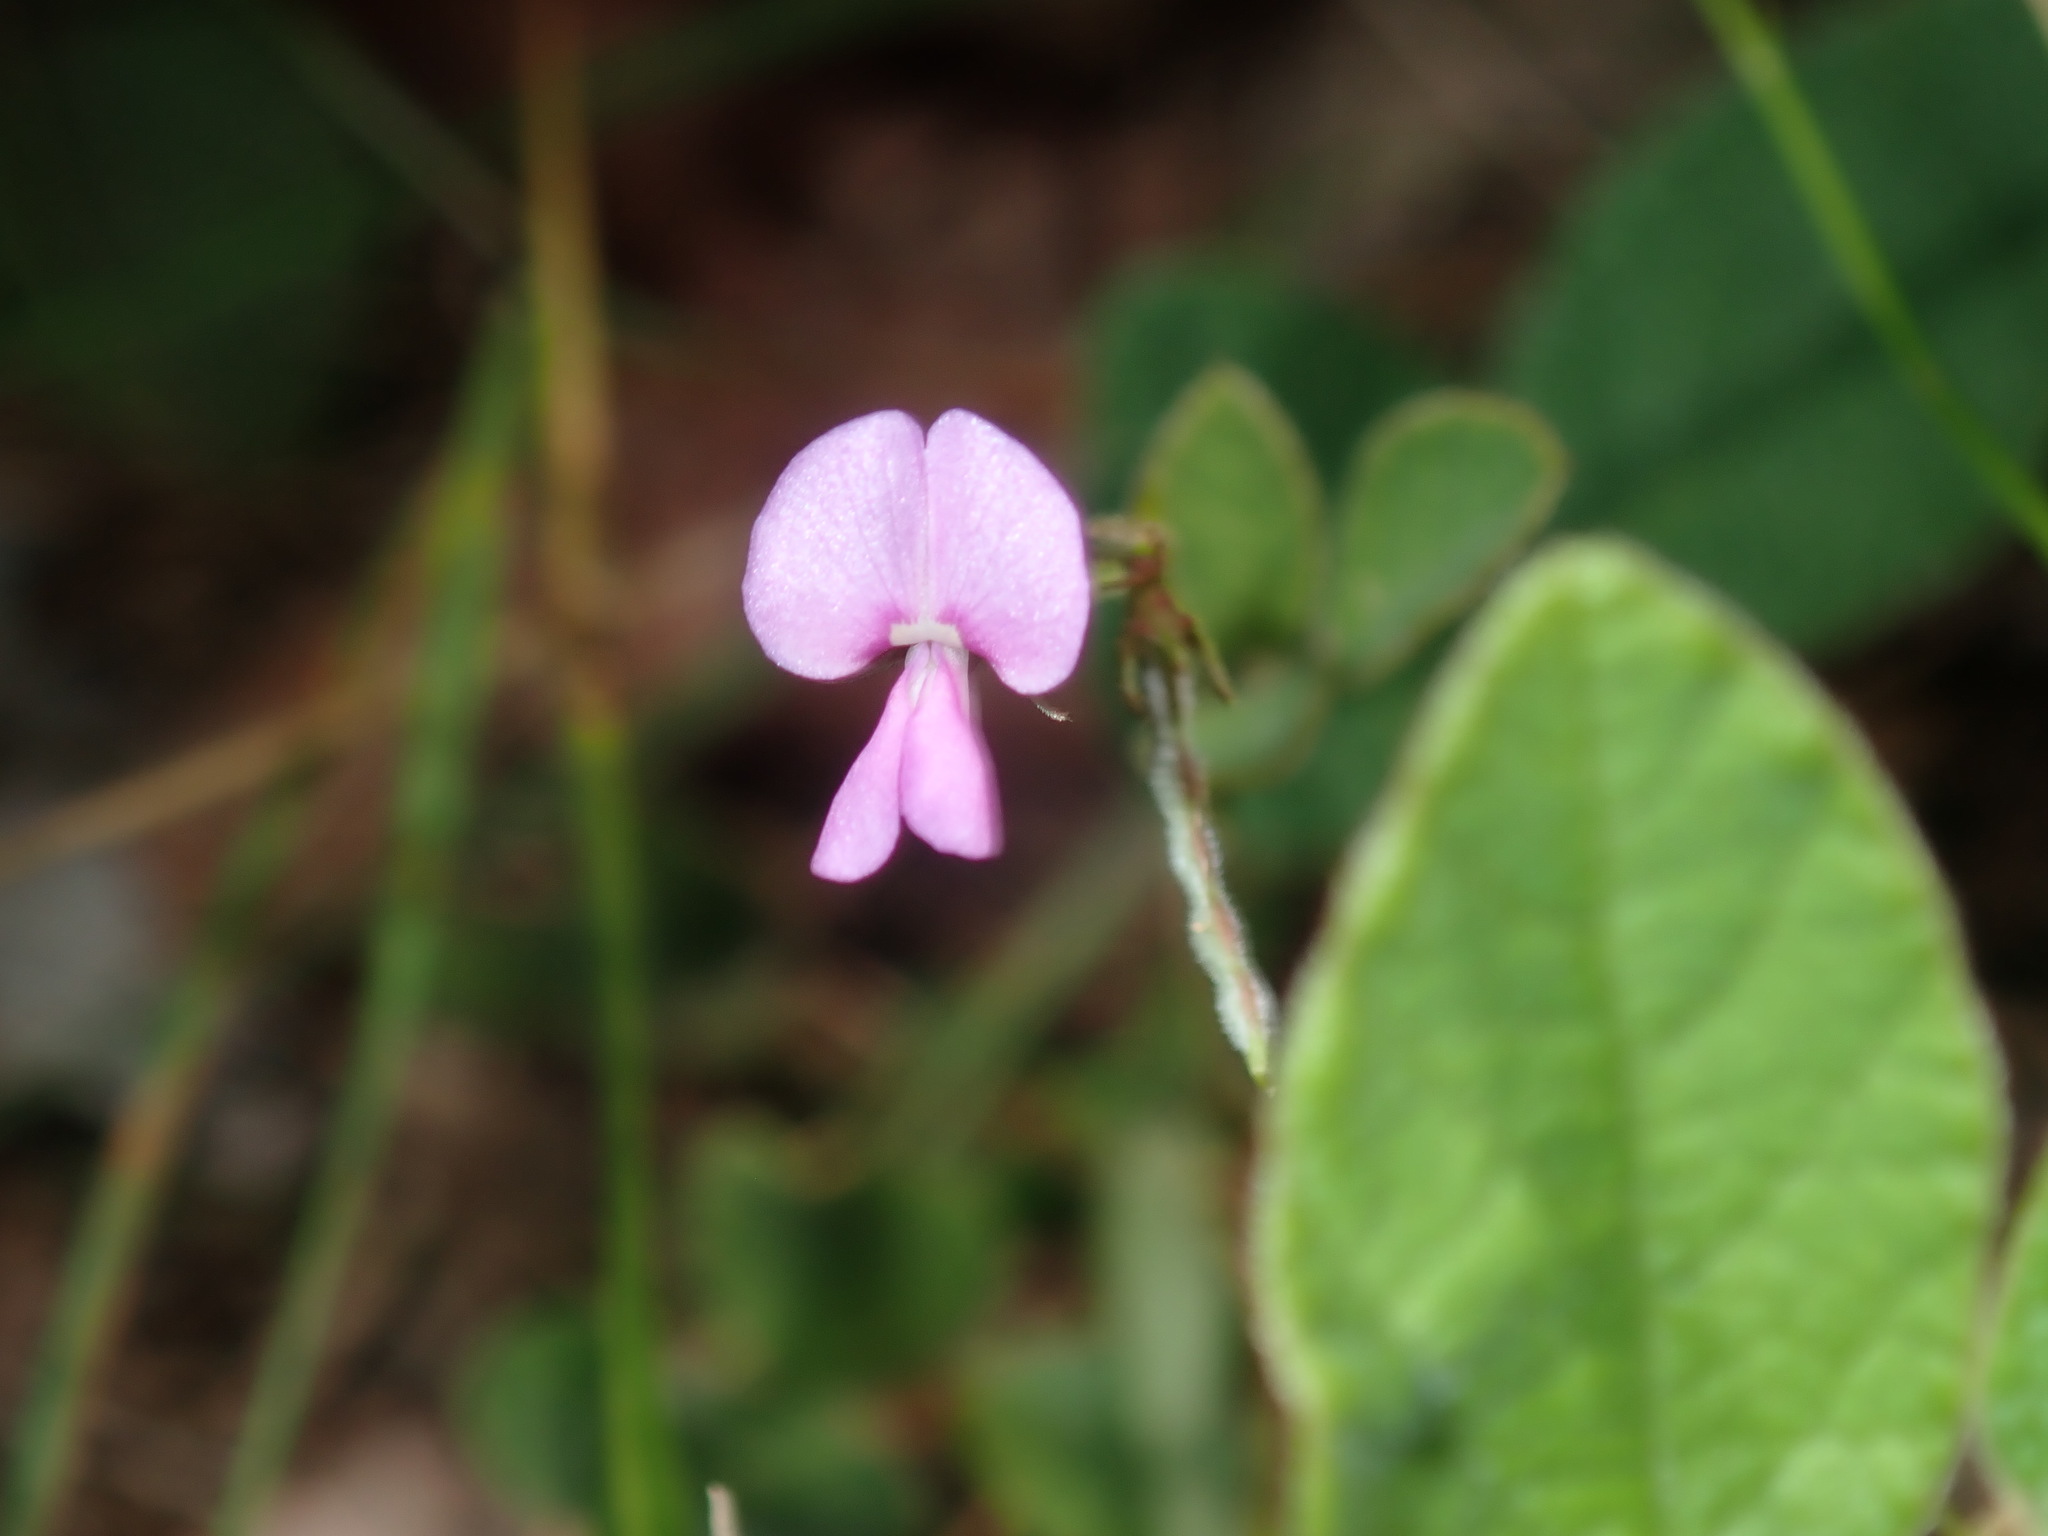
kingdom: Plantae
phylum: Tracheophyta
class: Magnoliopsida
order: Fabales
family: Fabaceae
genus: Maekawaea
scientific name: Maekawaea rhytidophylla
